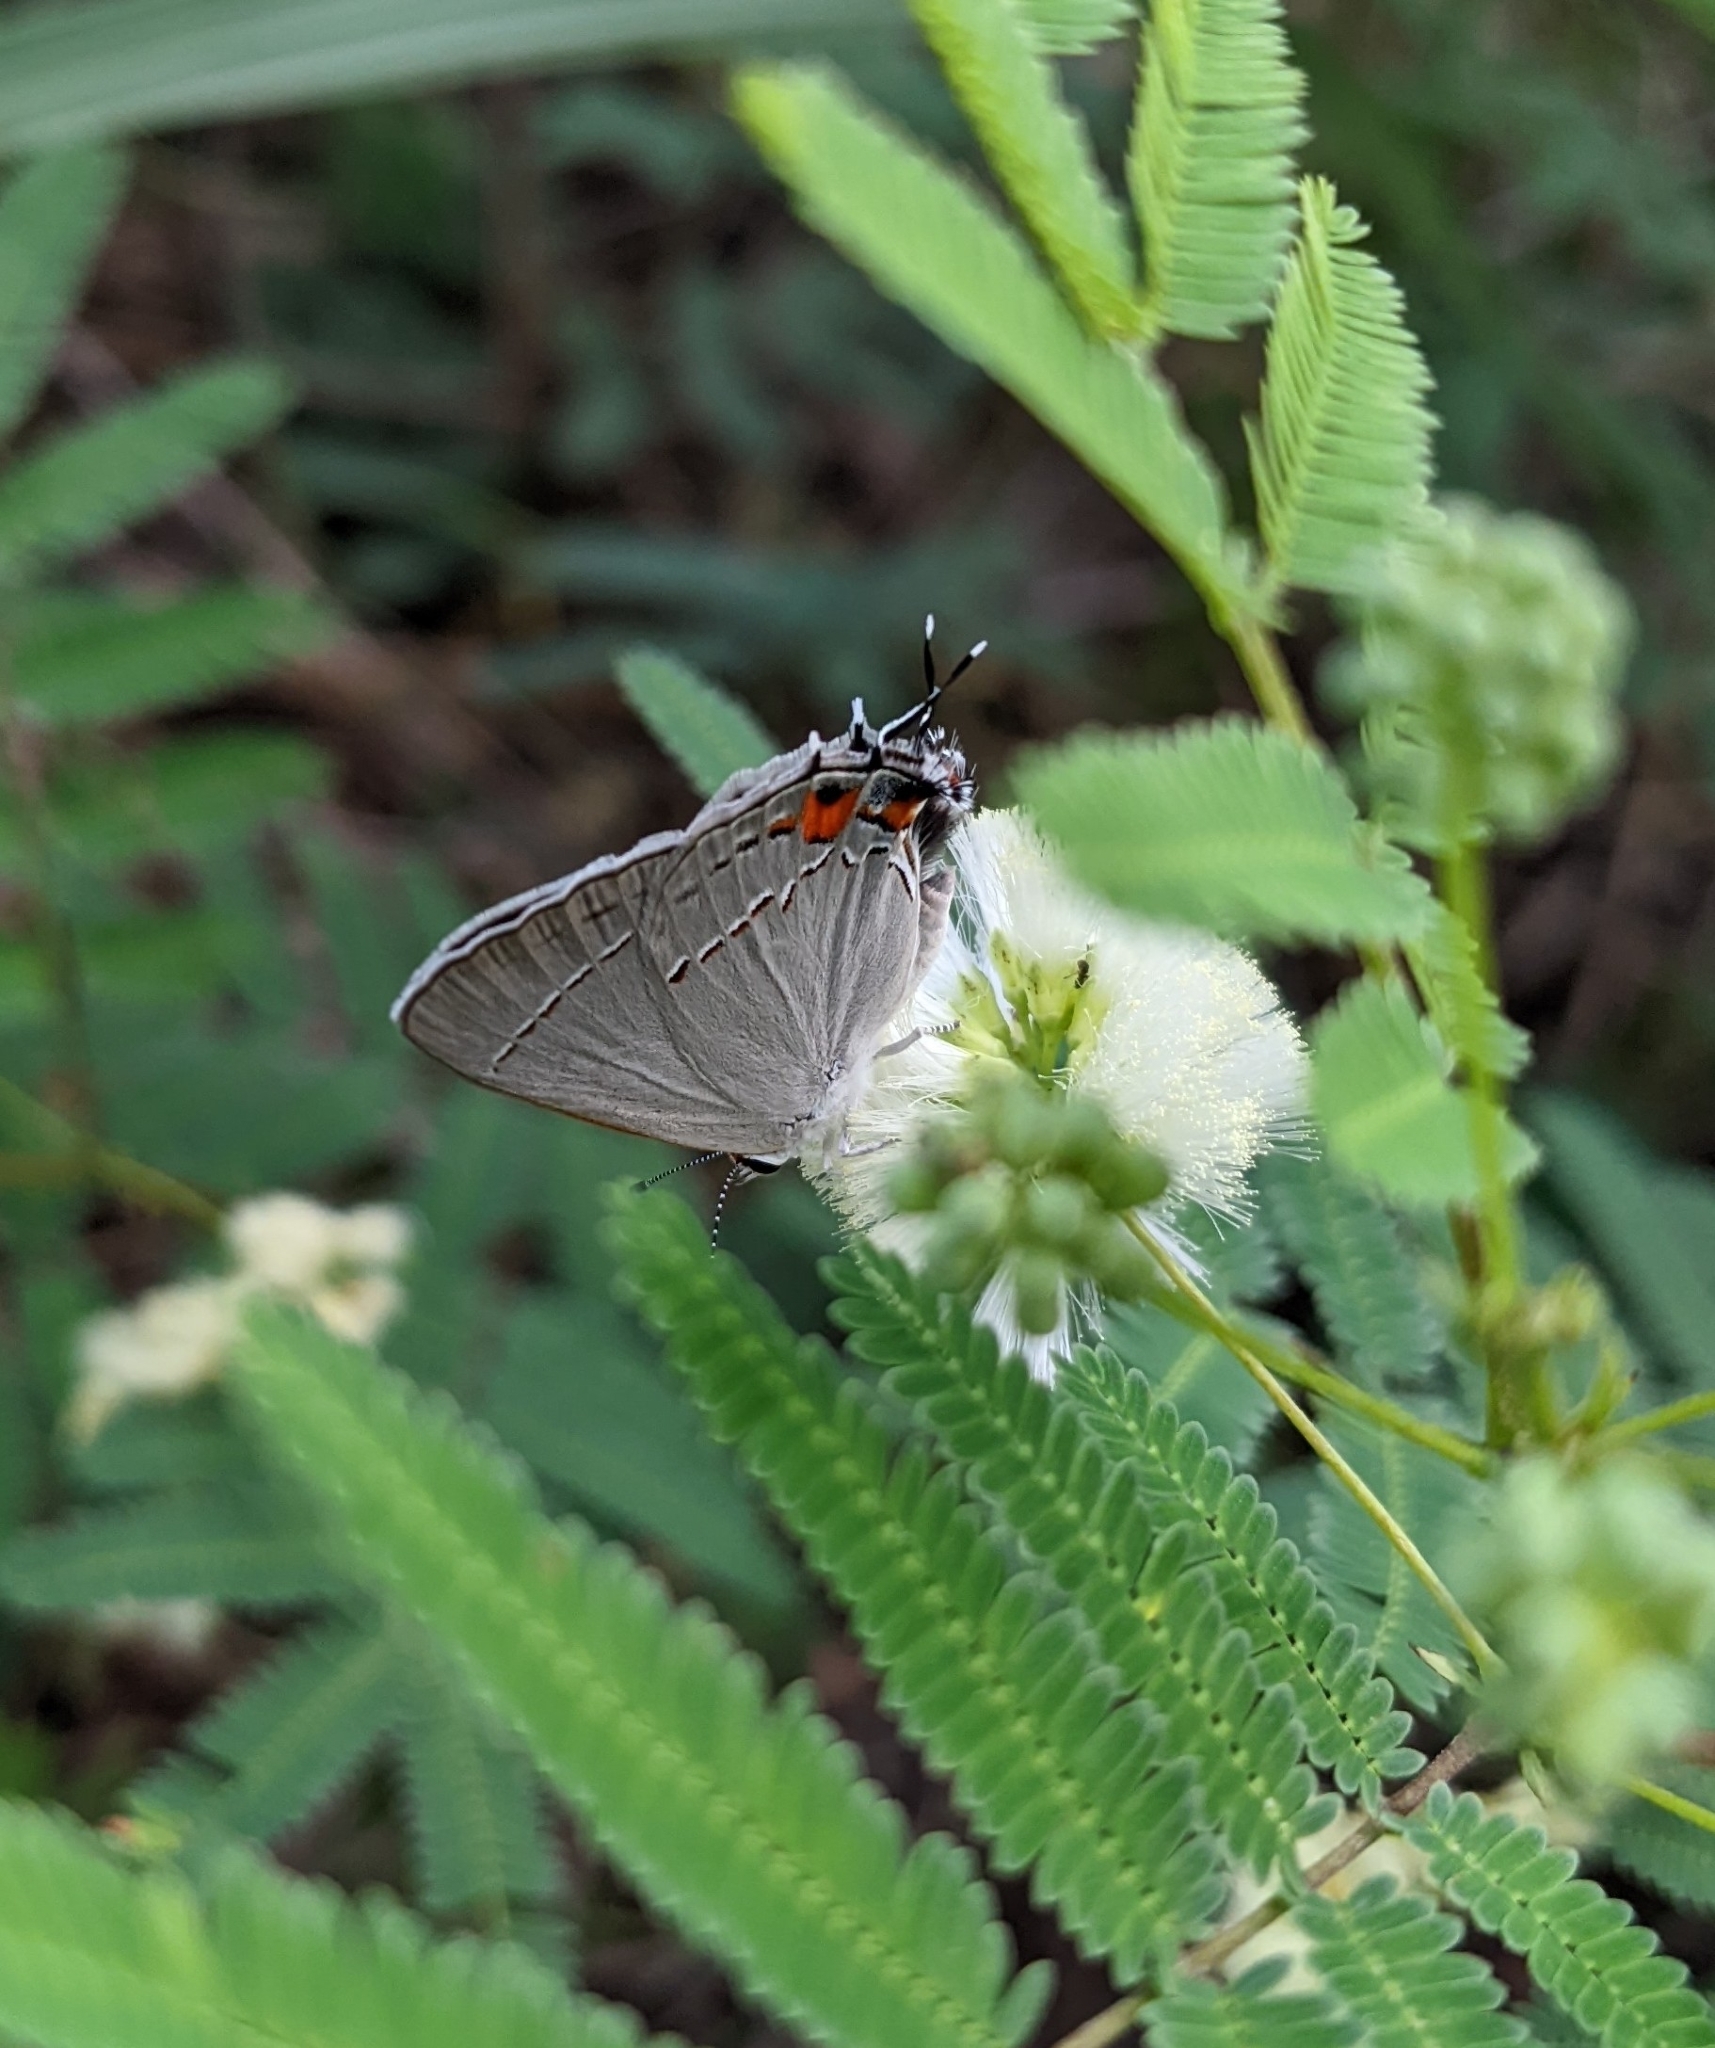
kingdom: Animalia
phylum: Arthropoda
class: Insecta
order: Lepidoptera
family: Lycaenidae
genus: Strymon
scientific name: Strymon melinus
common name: Gray hairstreak
